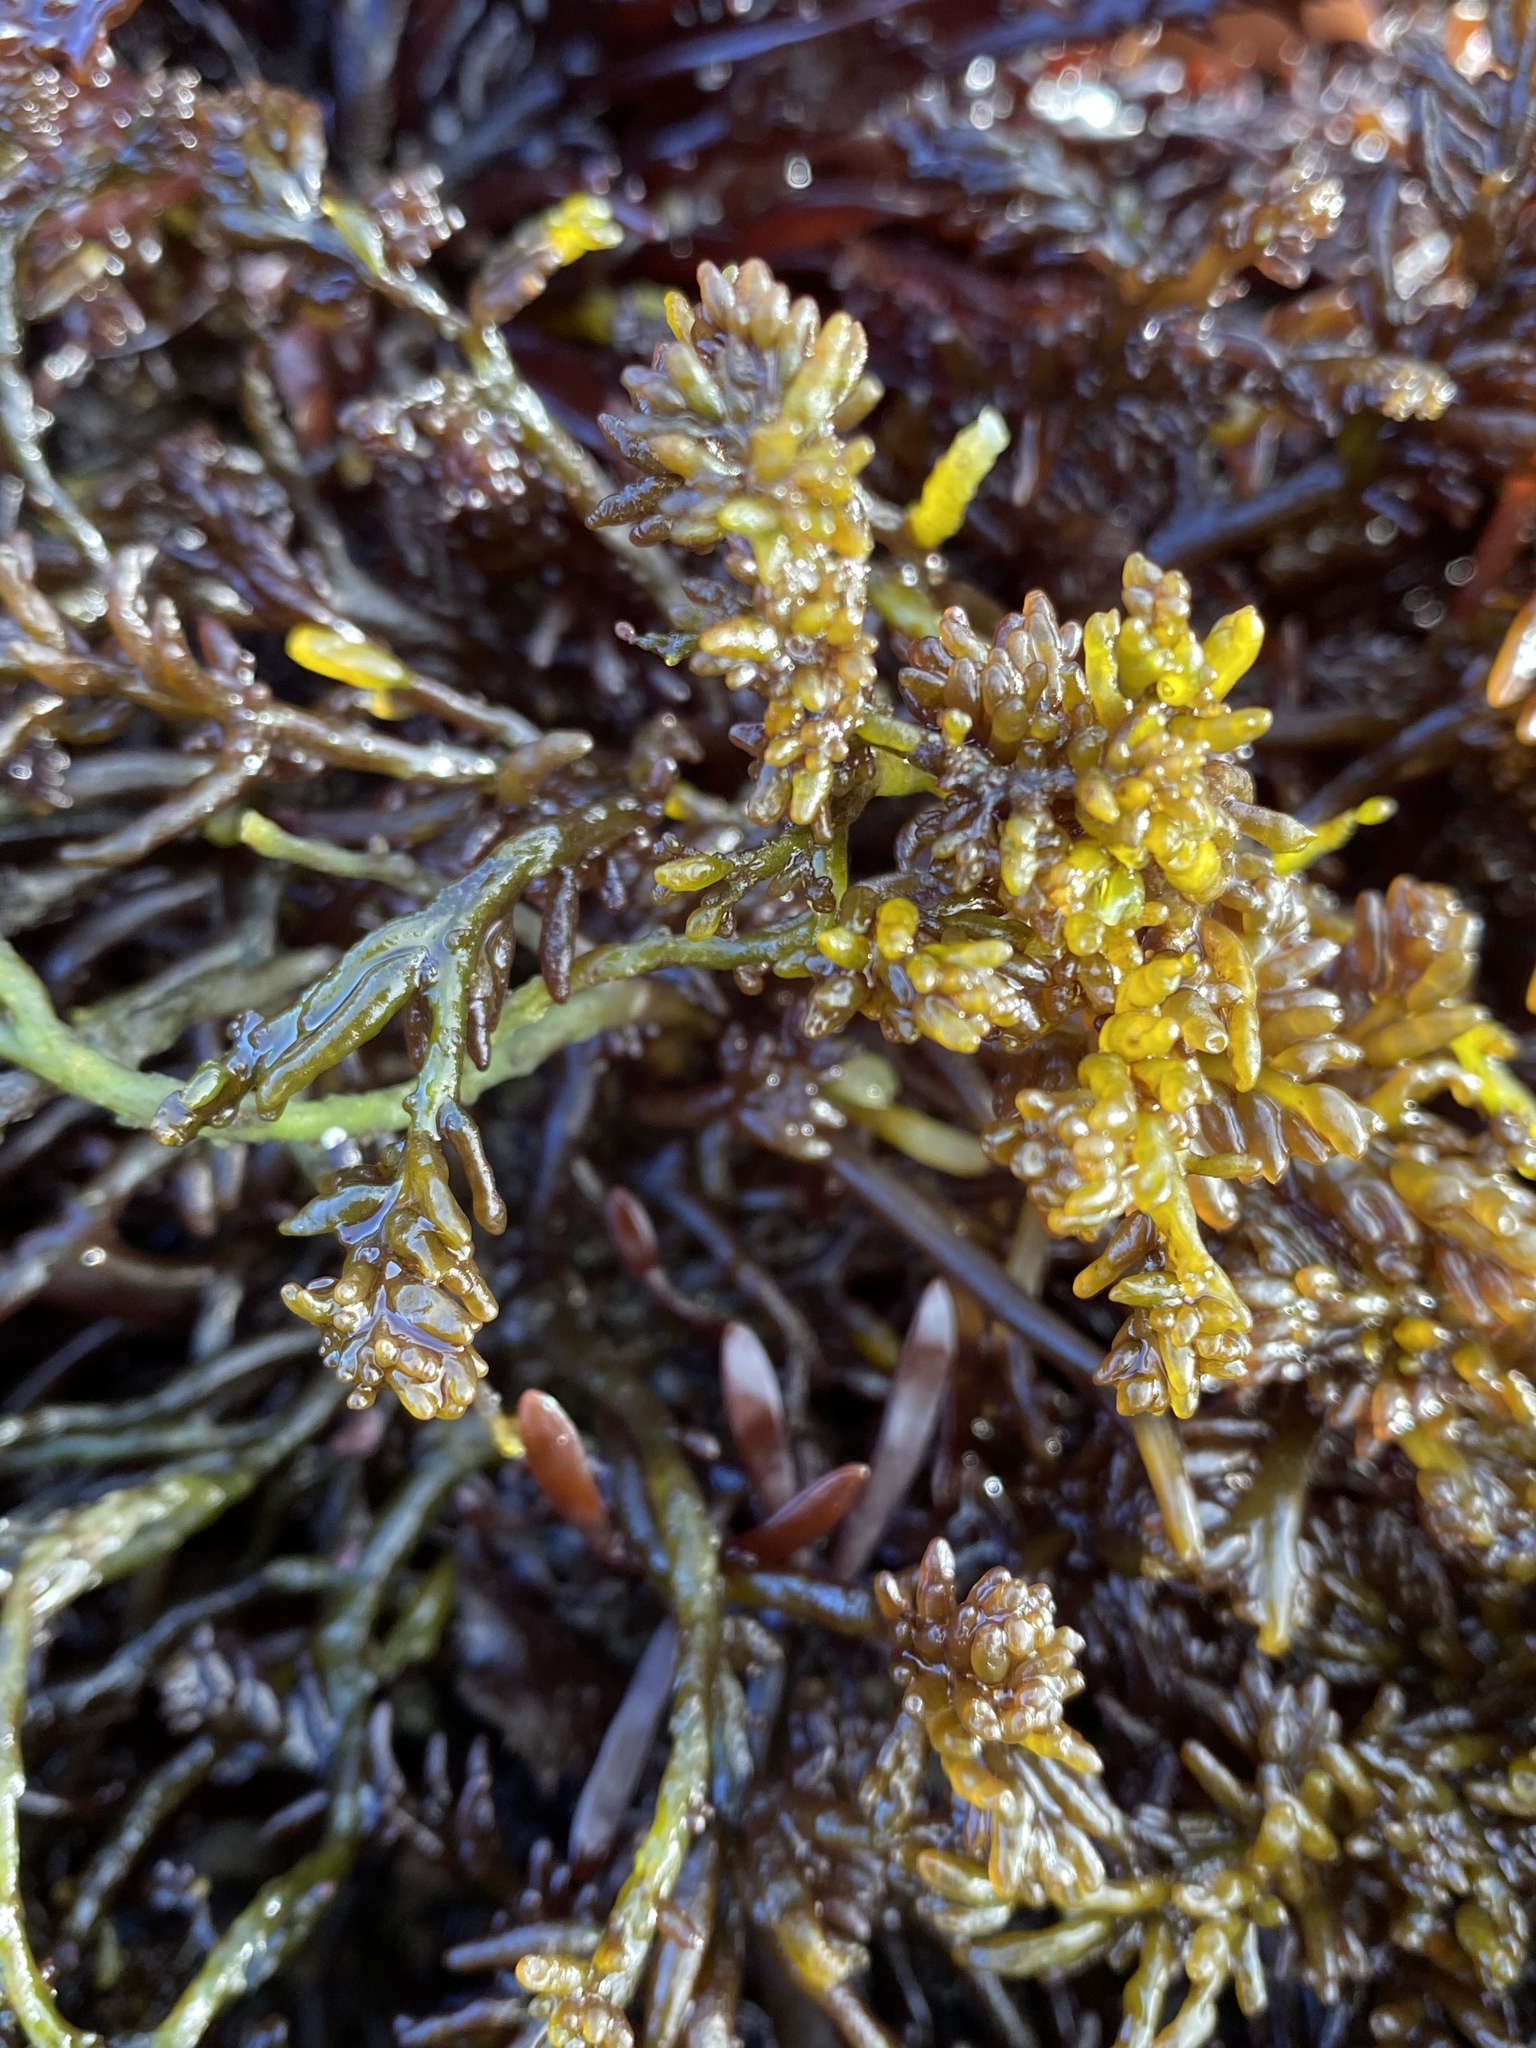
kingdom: Plantae
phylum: Rhodophyta
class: Florideophyceae
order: Rhodymeniales
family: Champiaceae
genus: Neogastroclonium
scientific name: Neogastroclonium subarticulatum
